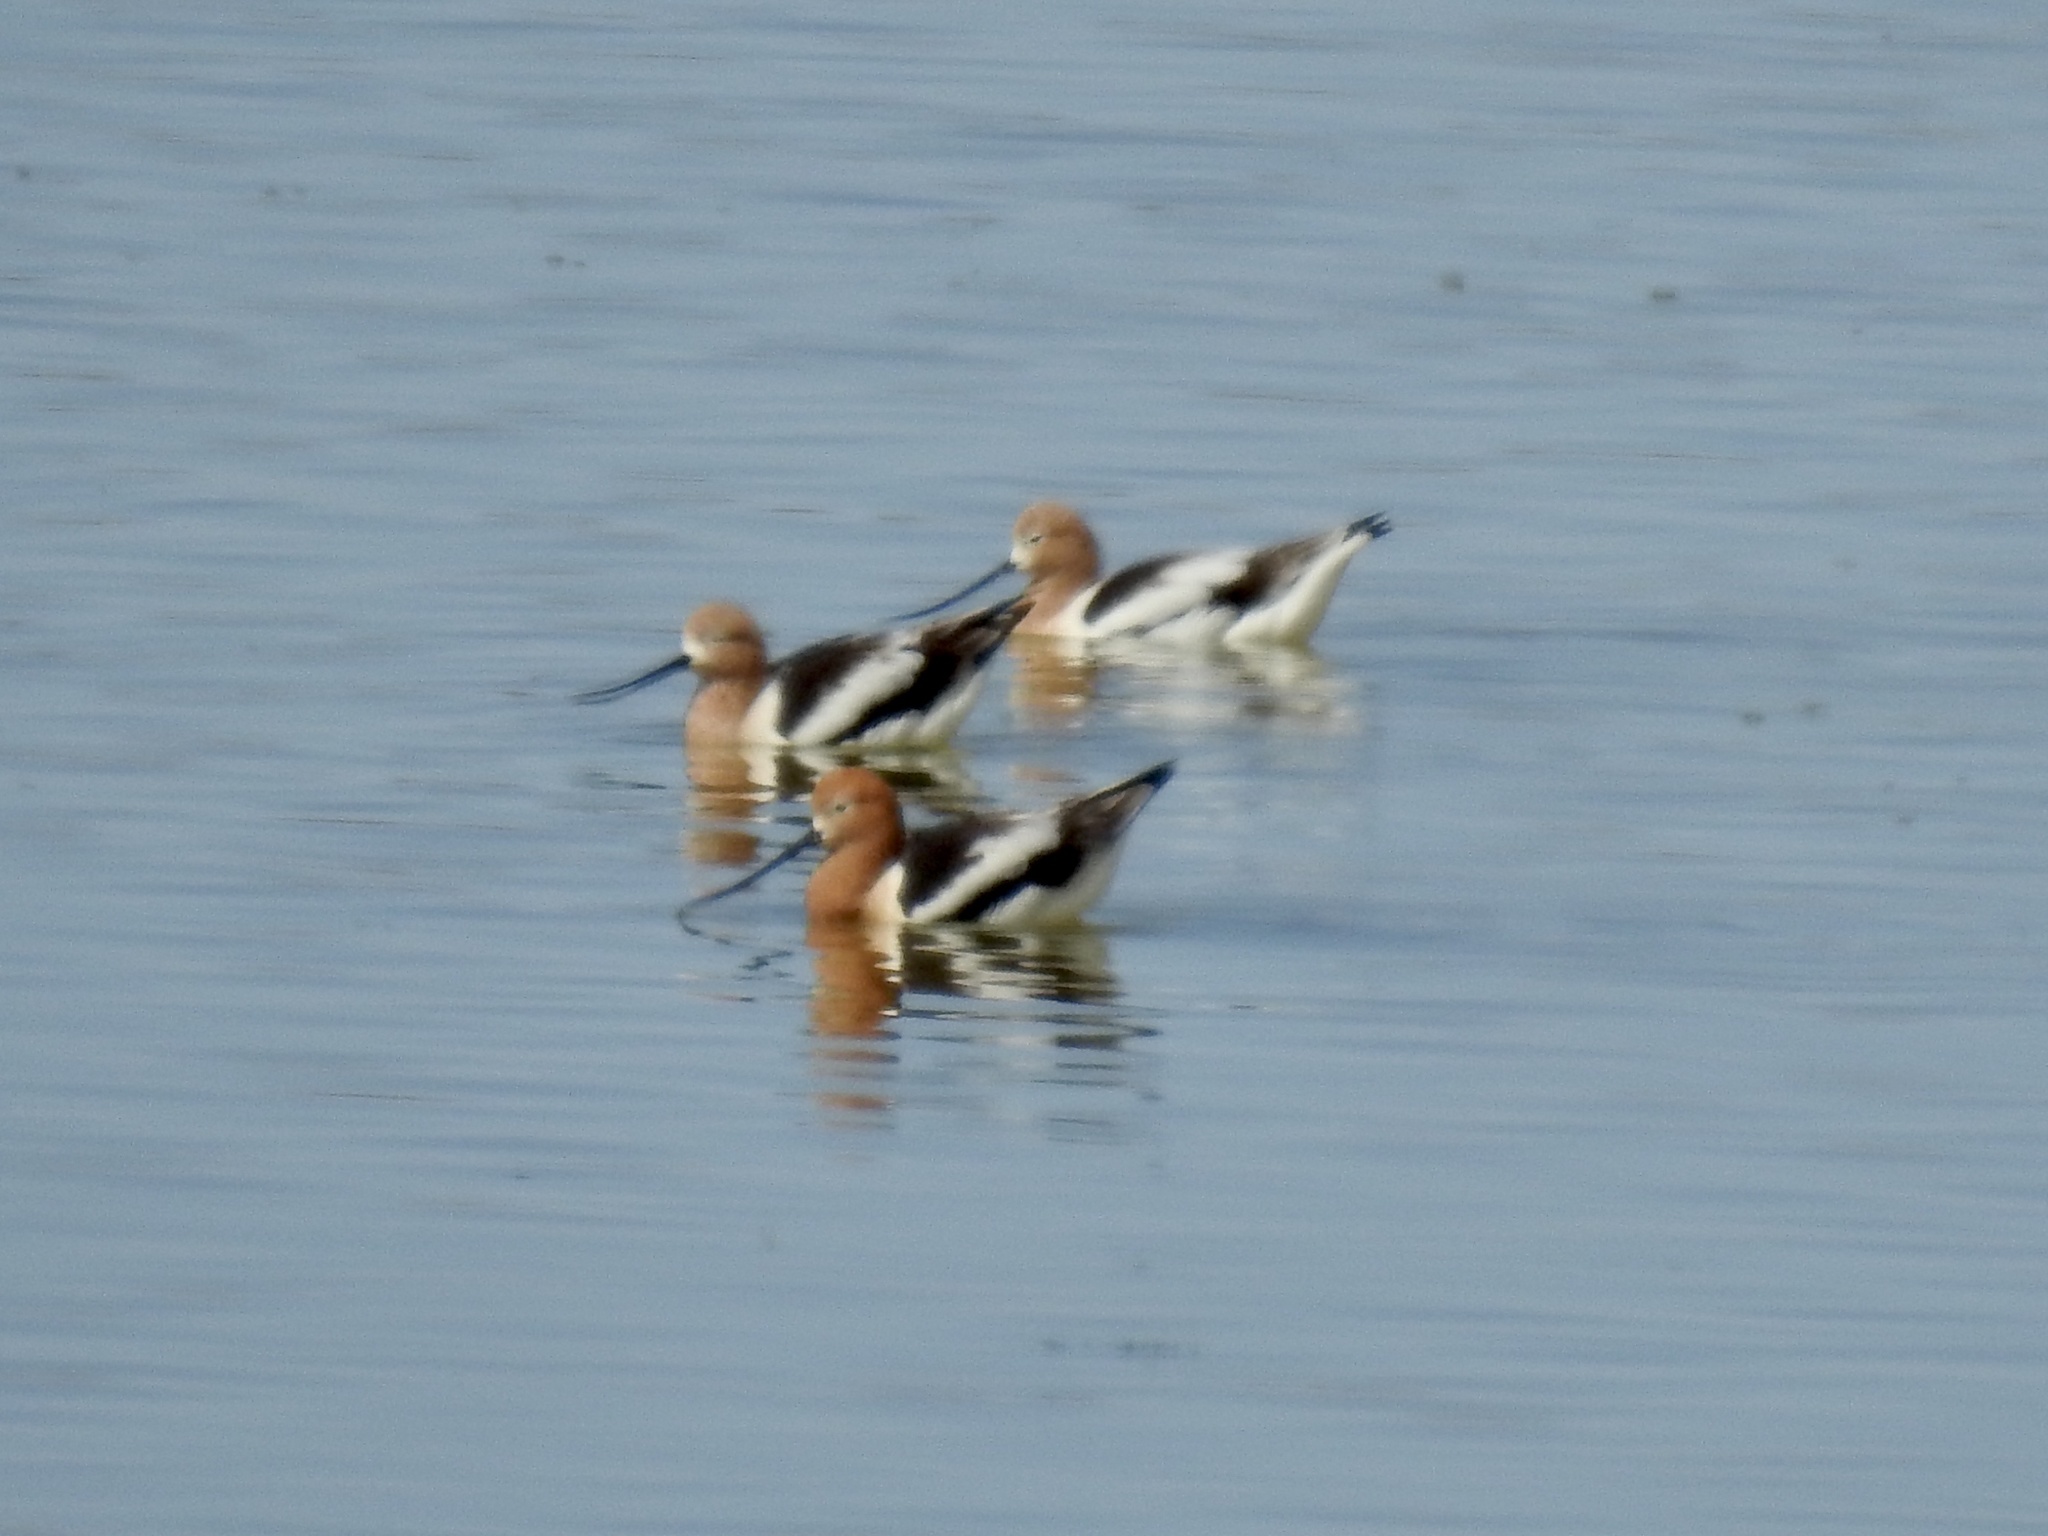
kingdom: Animalia
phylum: Chordata
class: Aves
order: Charadriiformes
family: Recurvirostridae
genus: Recurvirostra
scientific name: Recurvirostra americana
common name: American avocet
